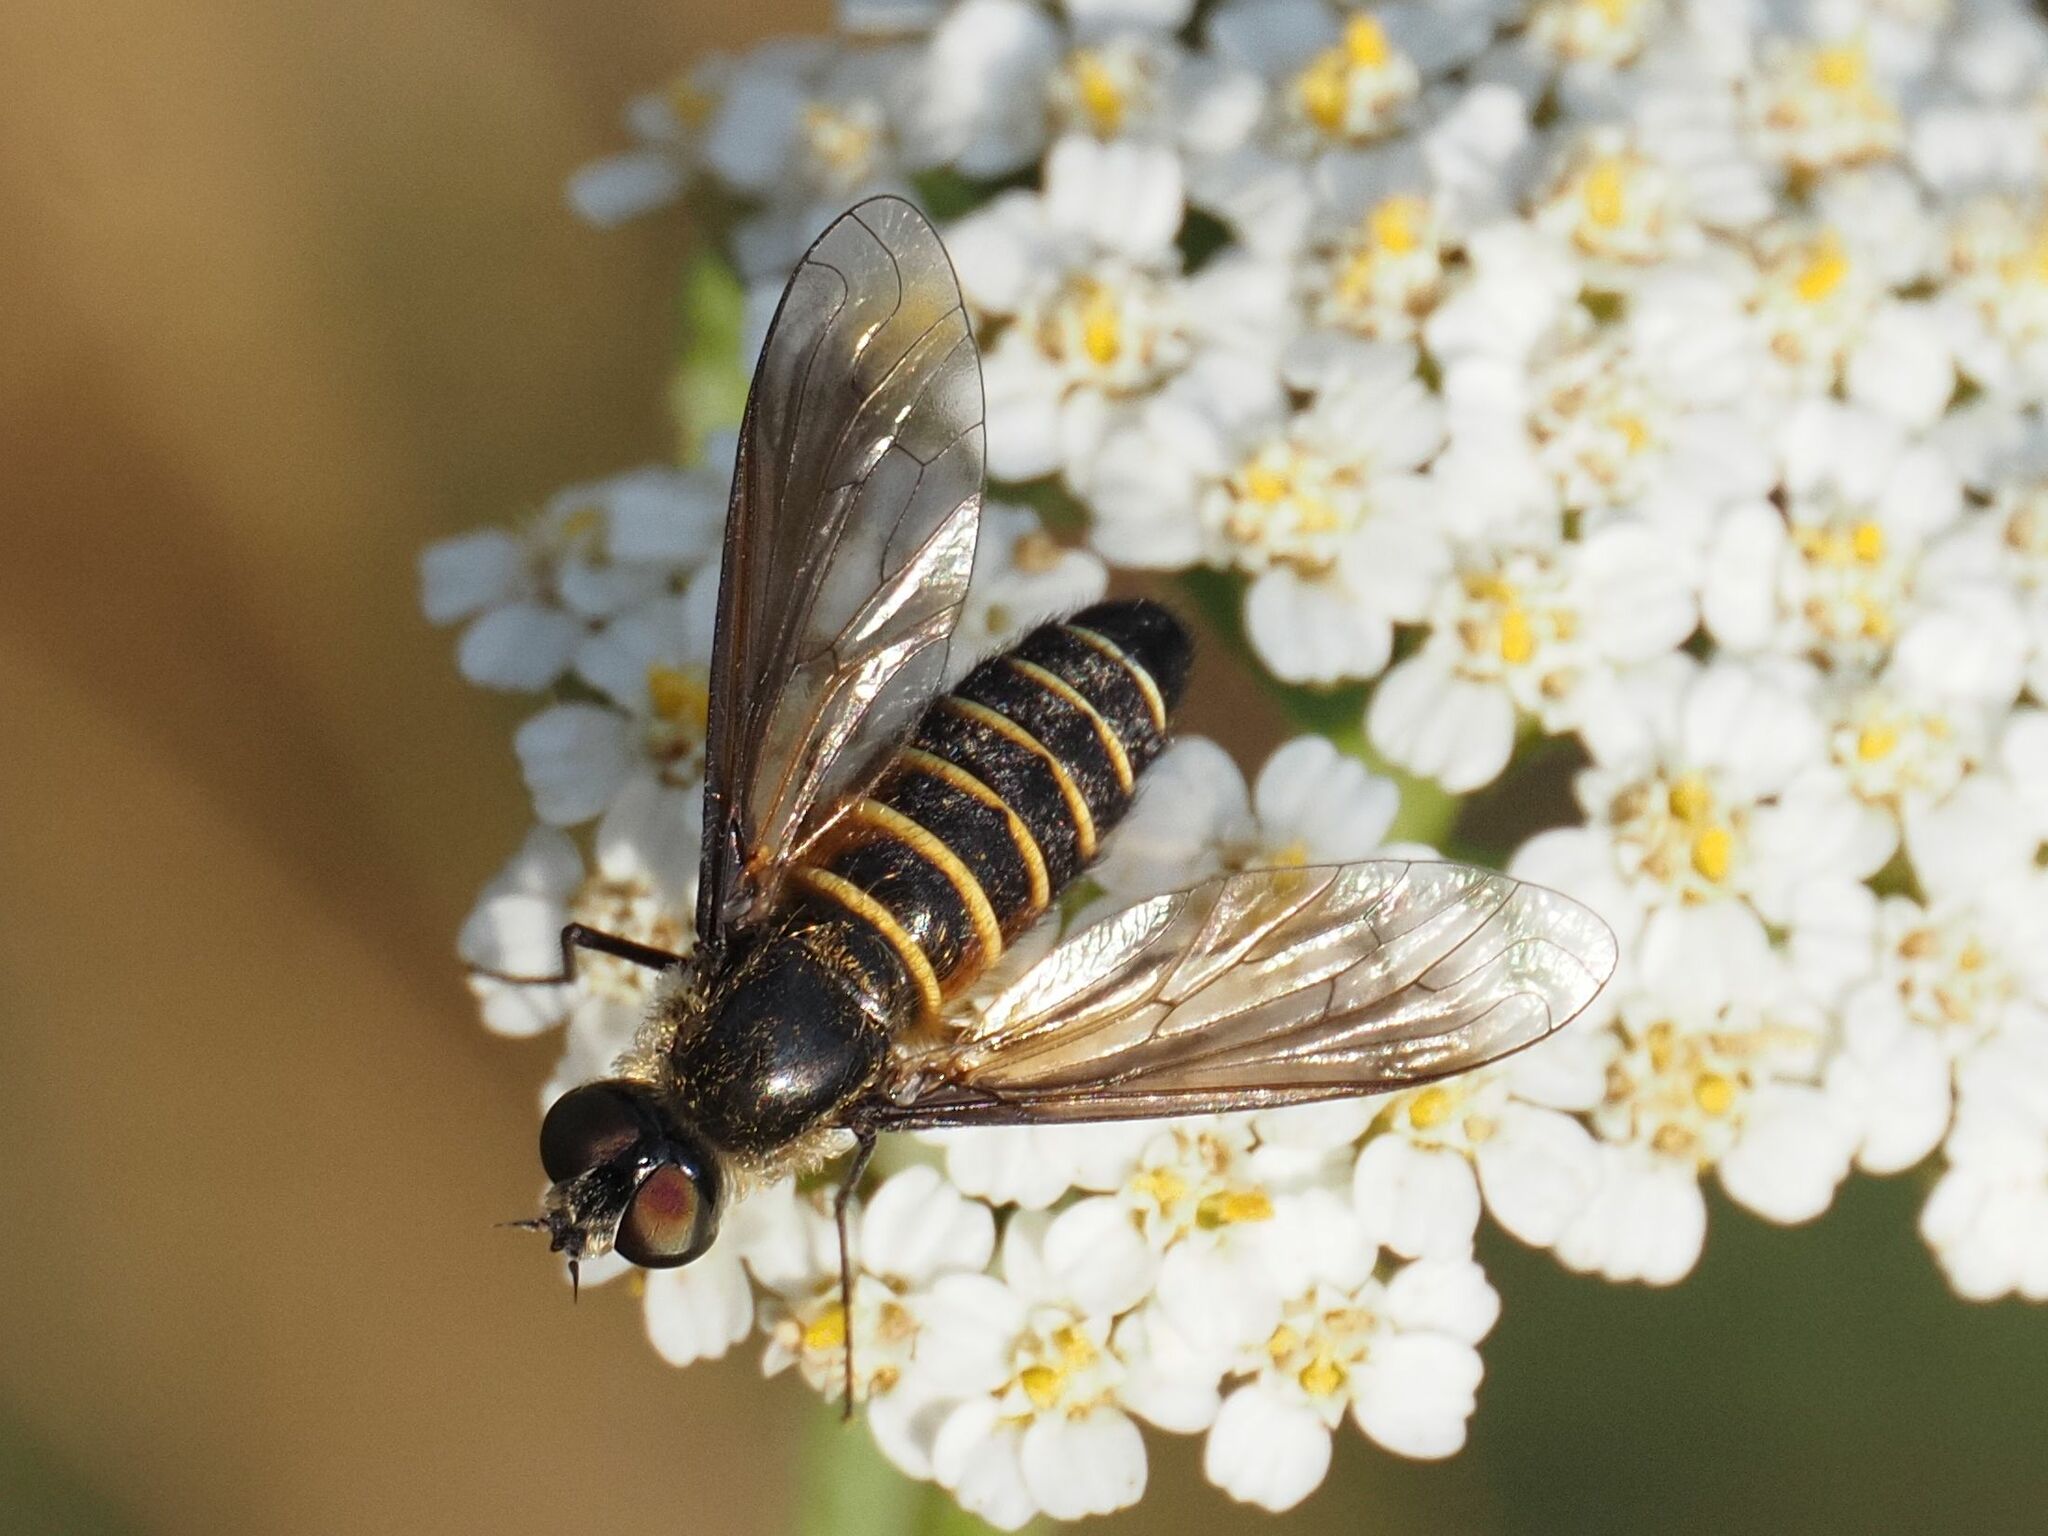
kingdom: Animalia
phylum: Arthropoda
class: Insecta
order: Diptera
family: Bombyliidae
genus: Lomatia
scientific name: Lomatia lateralis
